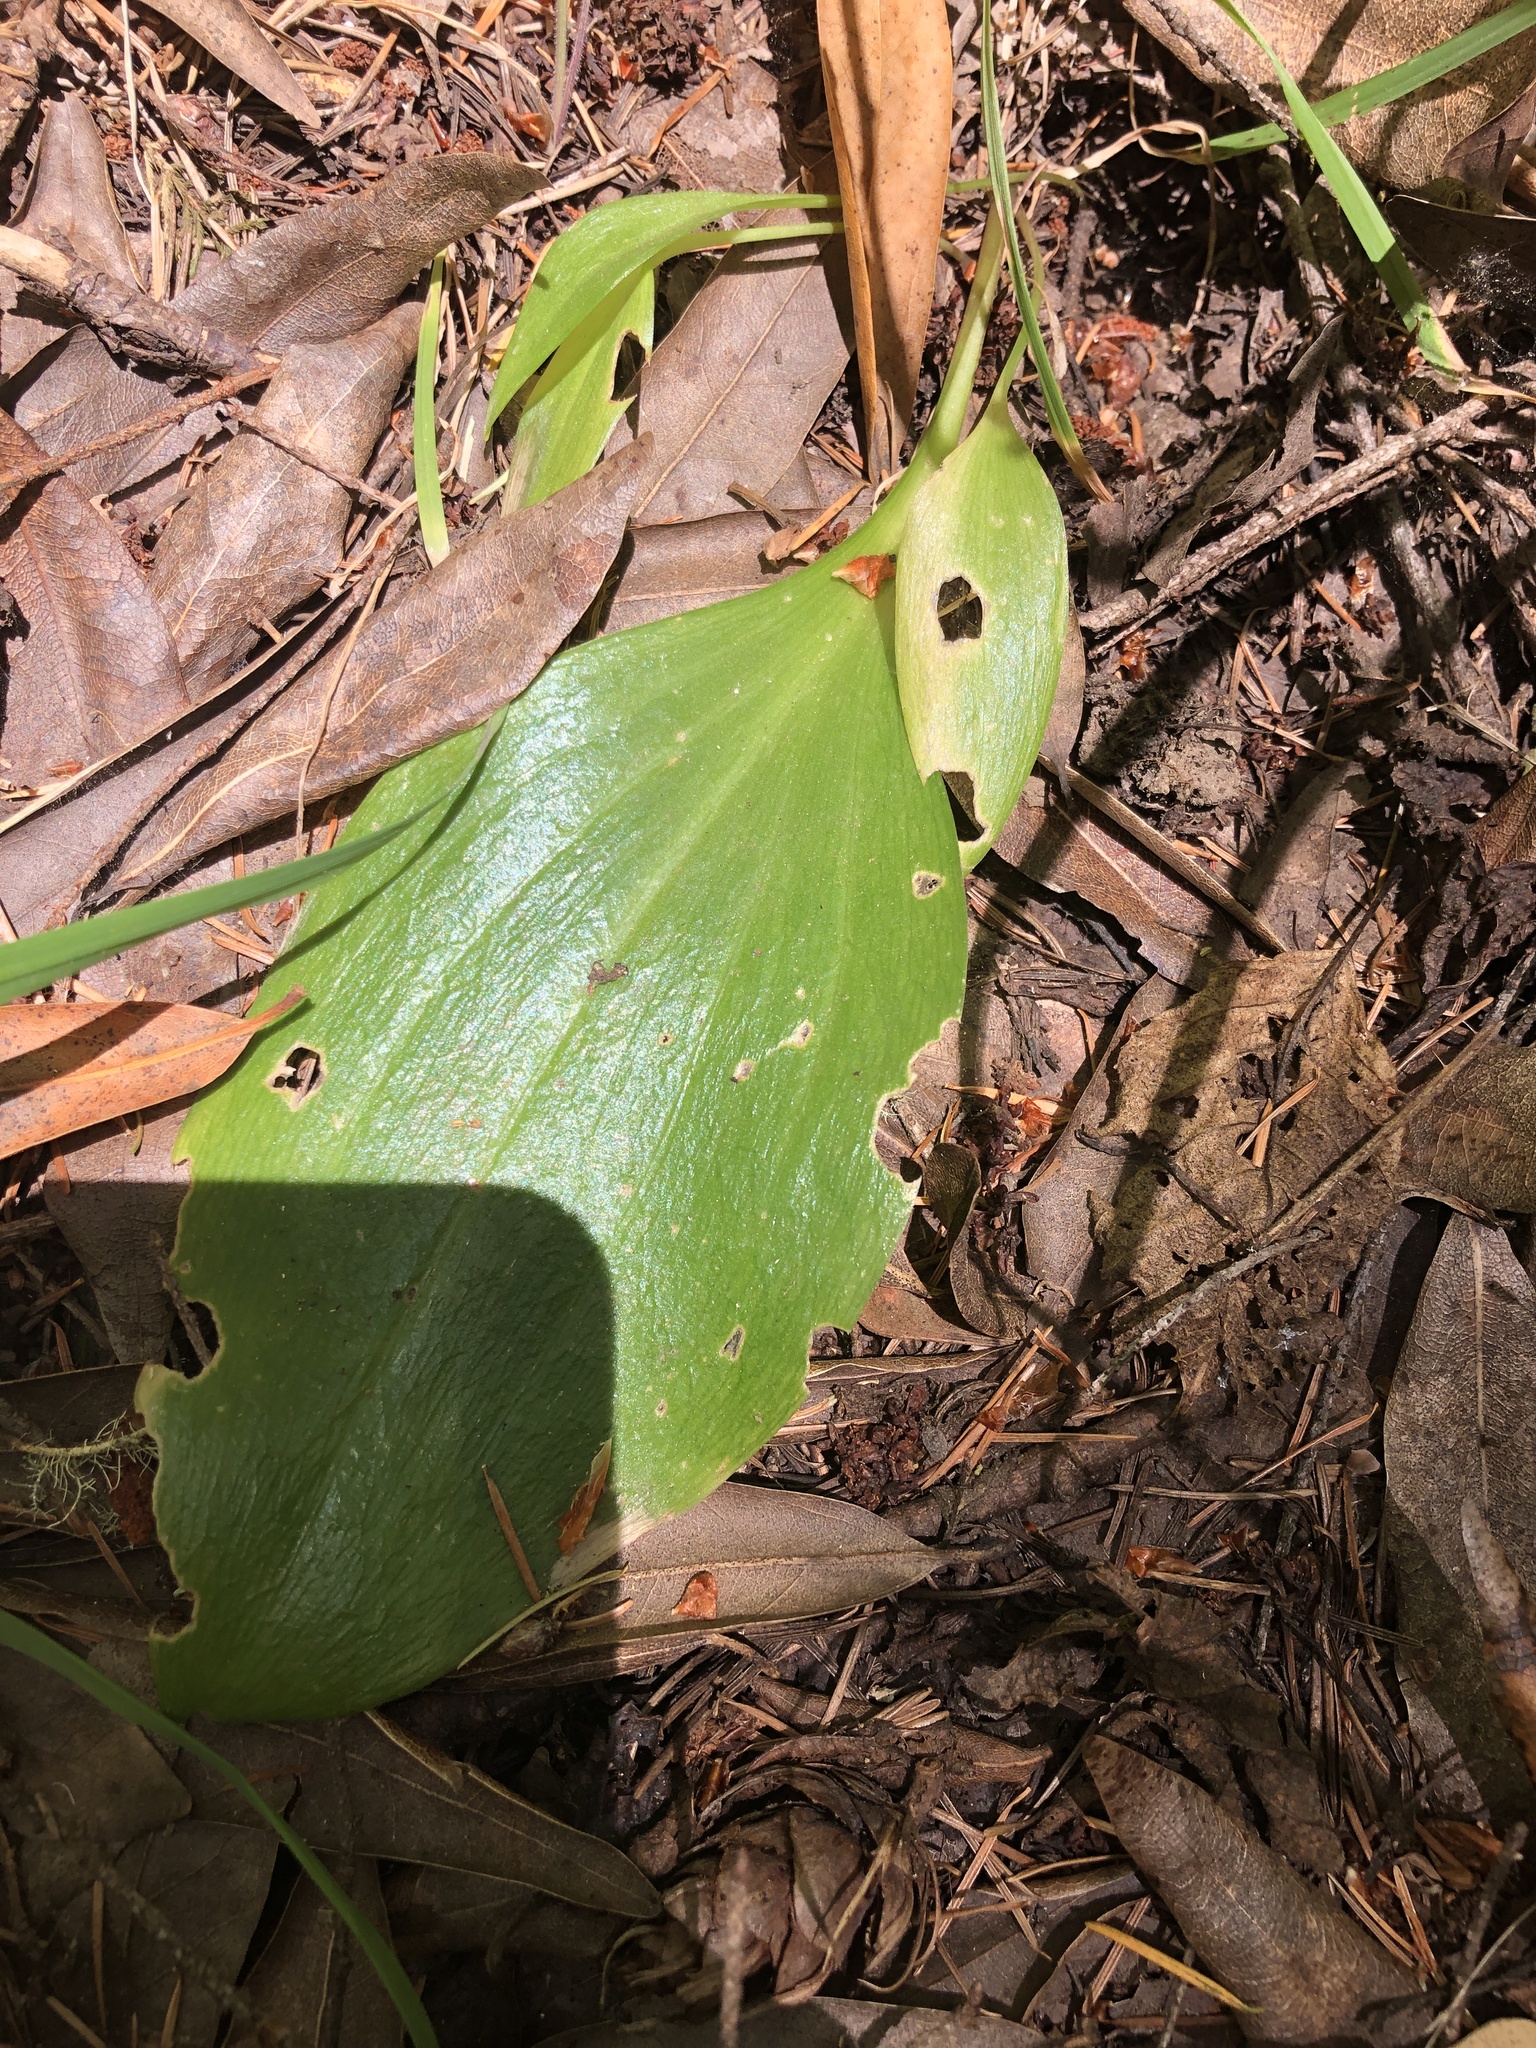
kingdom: Plantae
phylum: Tracheophyta
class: Liliopsida
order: Liliales
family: Liliaceae
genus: Fritillaria
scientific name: Fritillaria affinis
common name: Ojai fritillary
